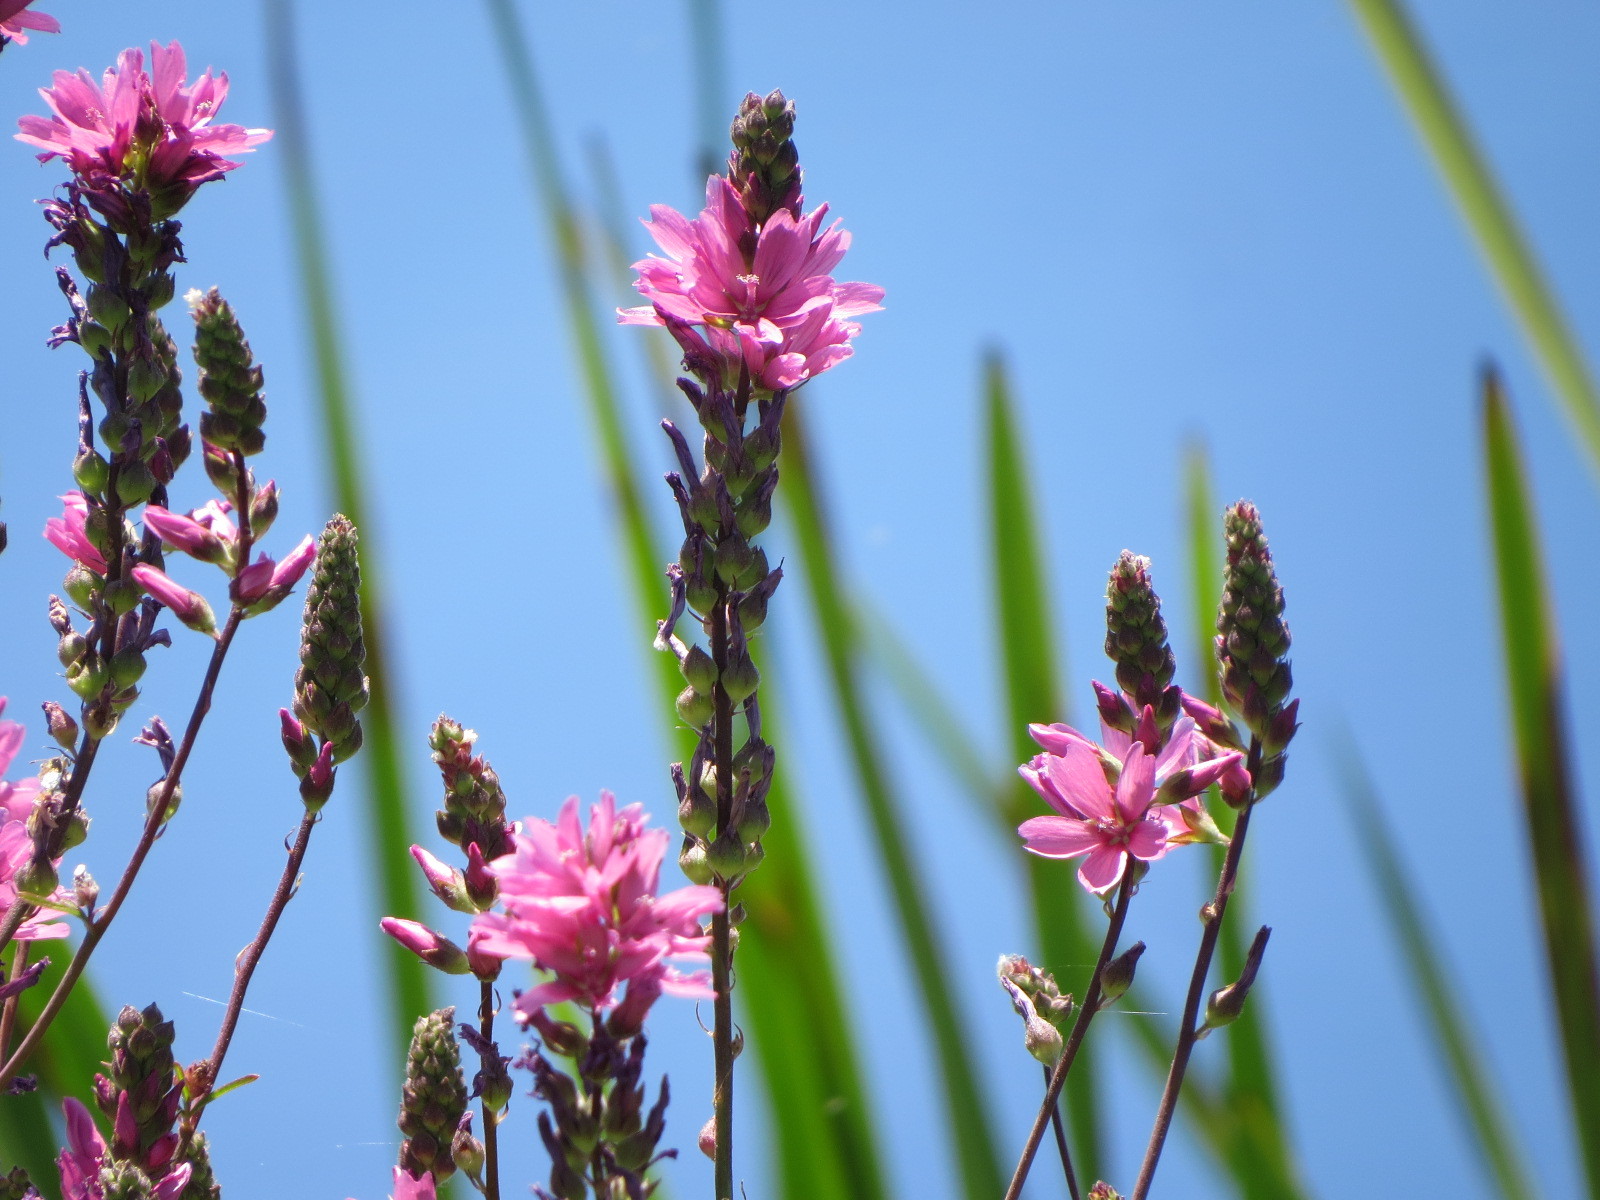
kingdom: Plantae
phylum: Tracheophyta
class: Magnoliopsida
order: Myrtales
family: Lythraceae
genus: Lythrum
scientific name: Lythrum salicaria
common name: Purple loosestrife
